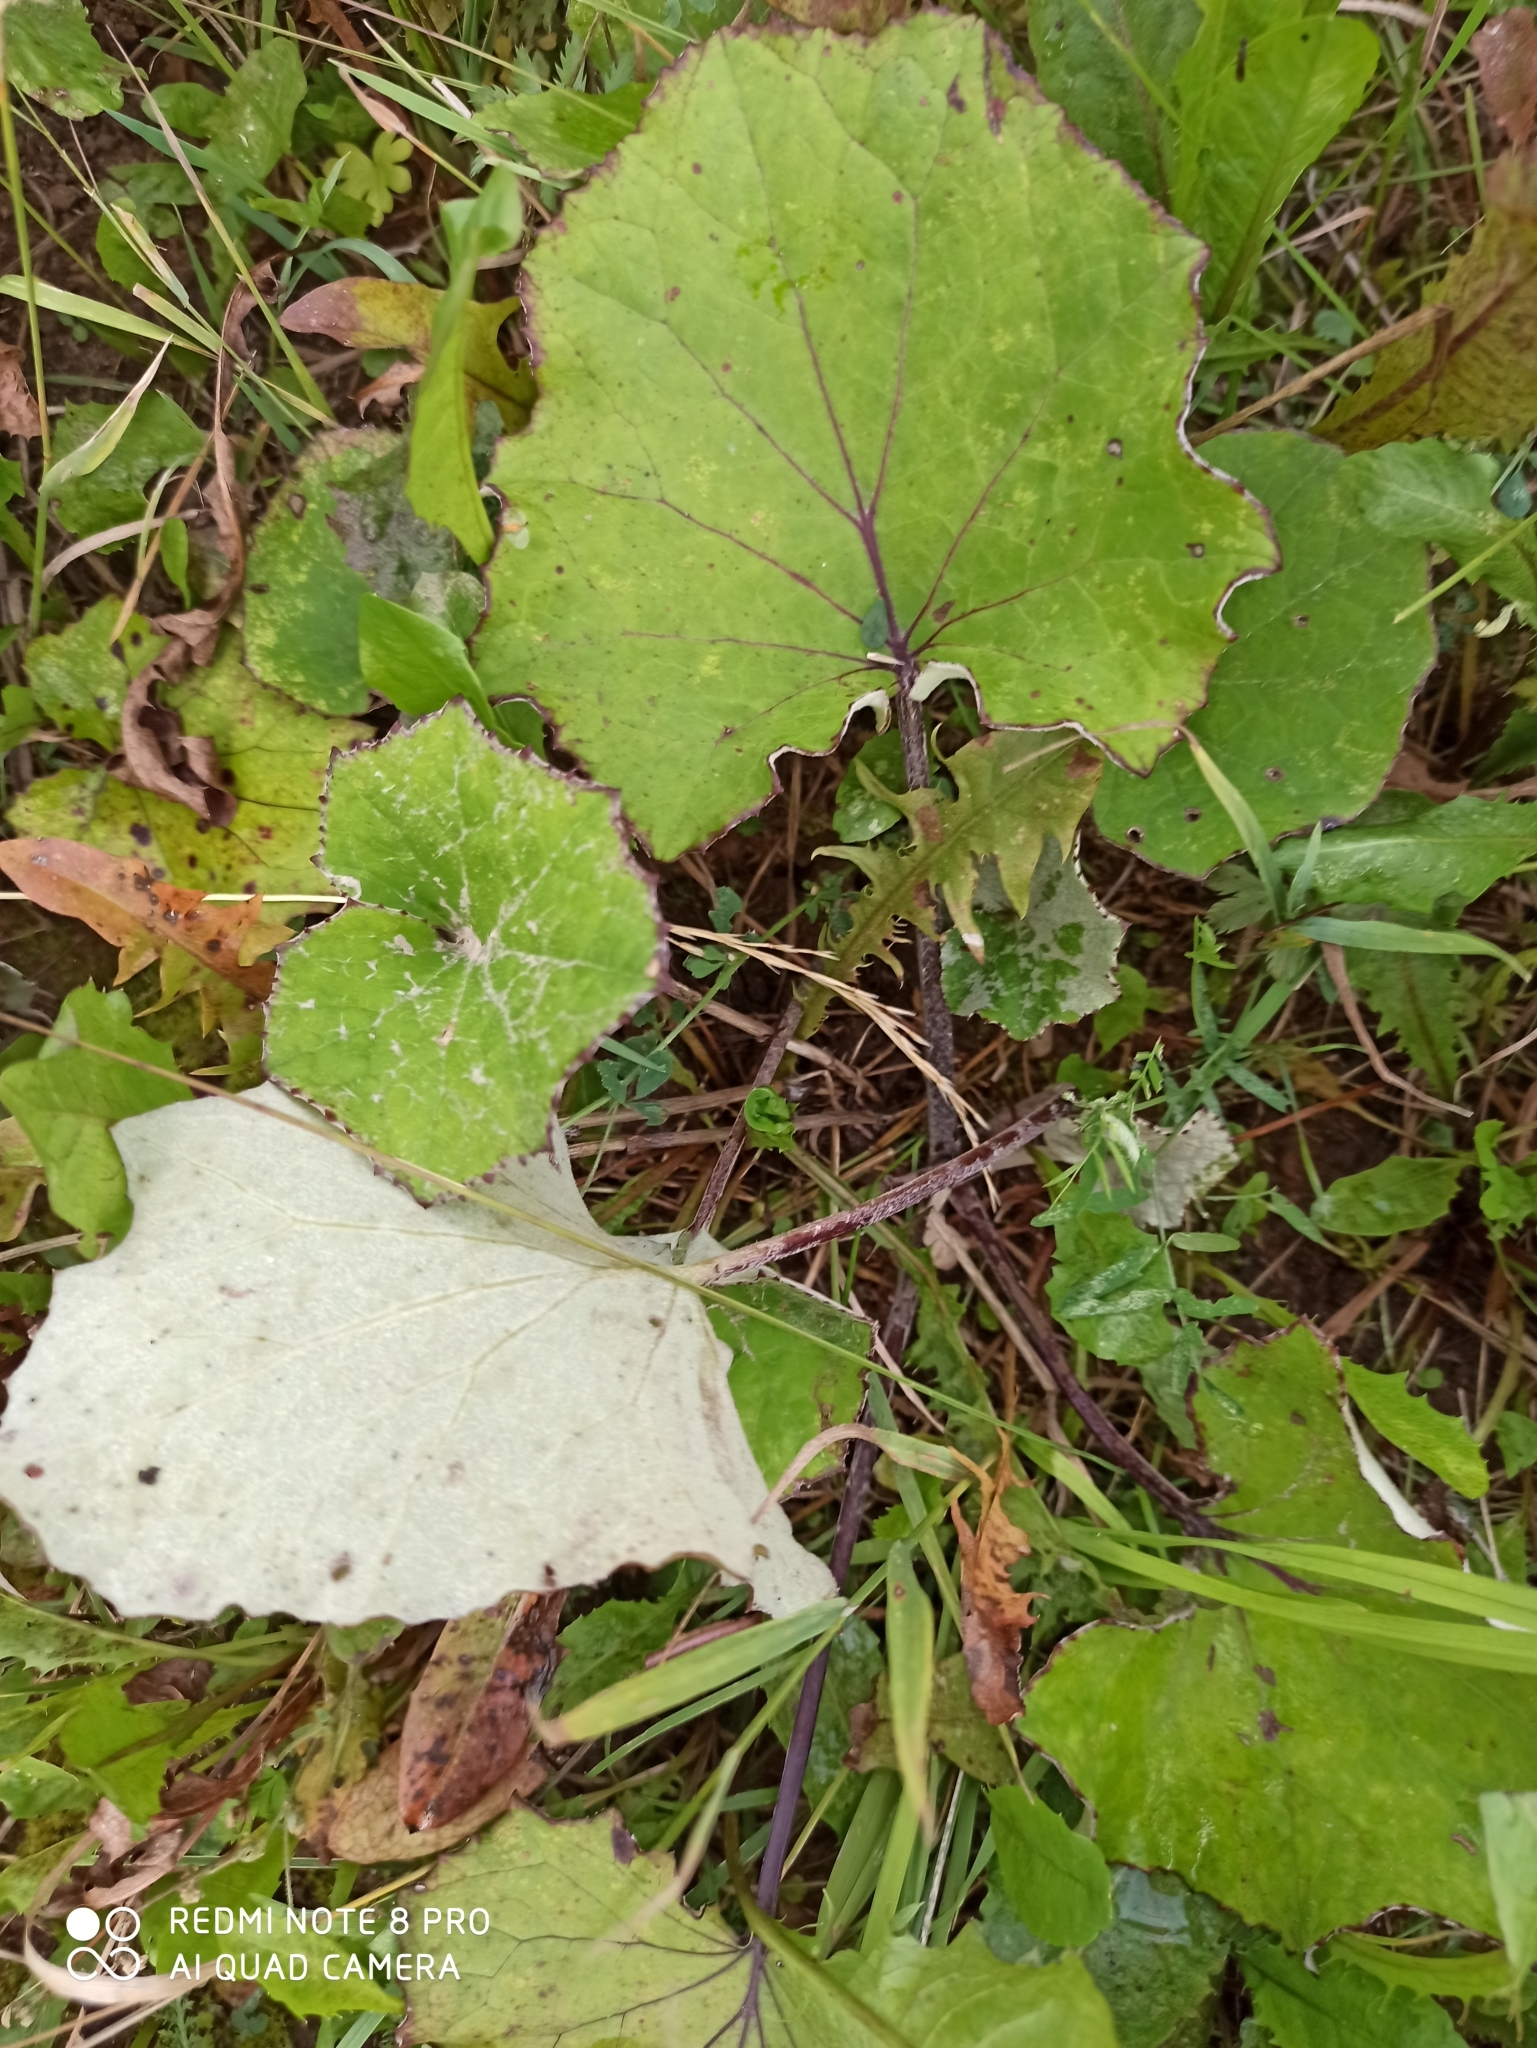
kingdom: Plantae
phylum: Tracheophyta
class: Magnoliopsida
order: Asterales
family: Asteraceae
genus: Tussilago
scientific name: Tussilago farfara
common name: Coltsfoot
